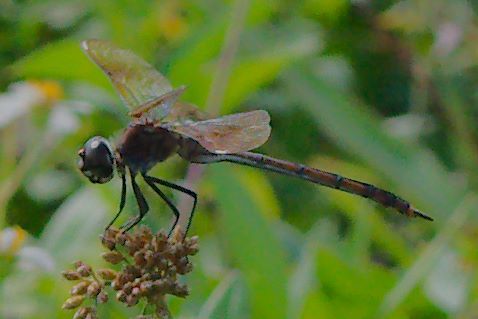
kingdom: Animalia
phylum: Arthropoda
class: Insecta
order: Odonata
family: Libellulidae
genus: Brachymesia
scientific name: Brachymesia gravida
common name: Four-spotted pennant
